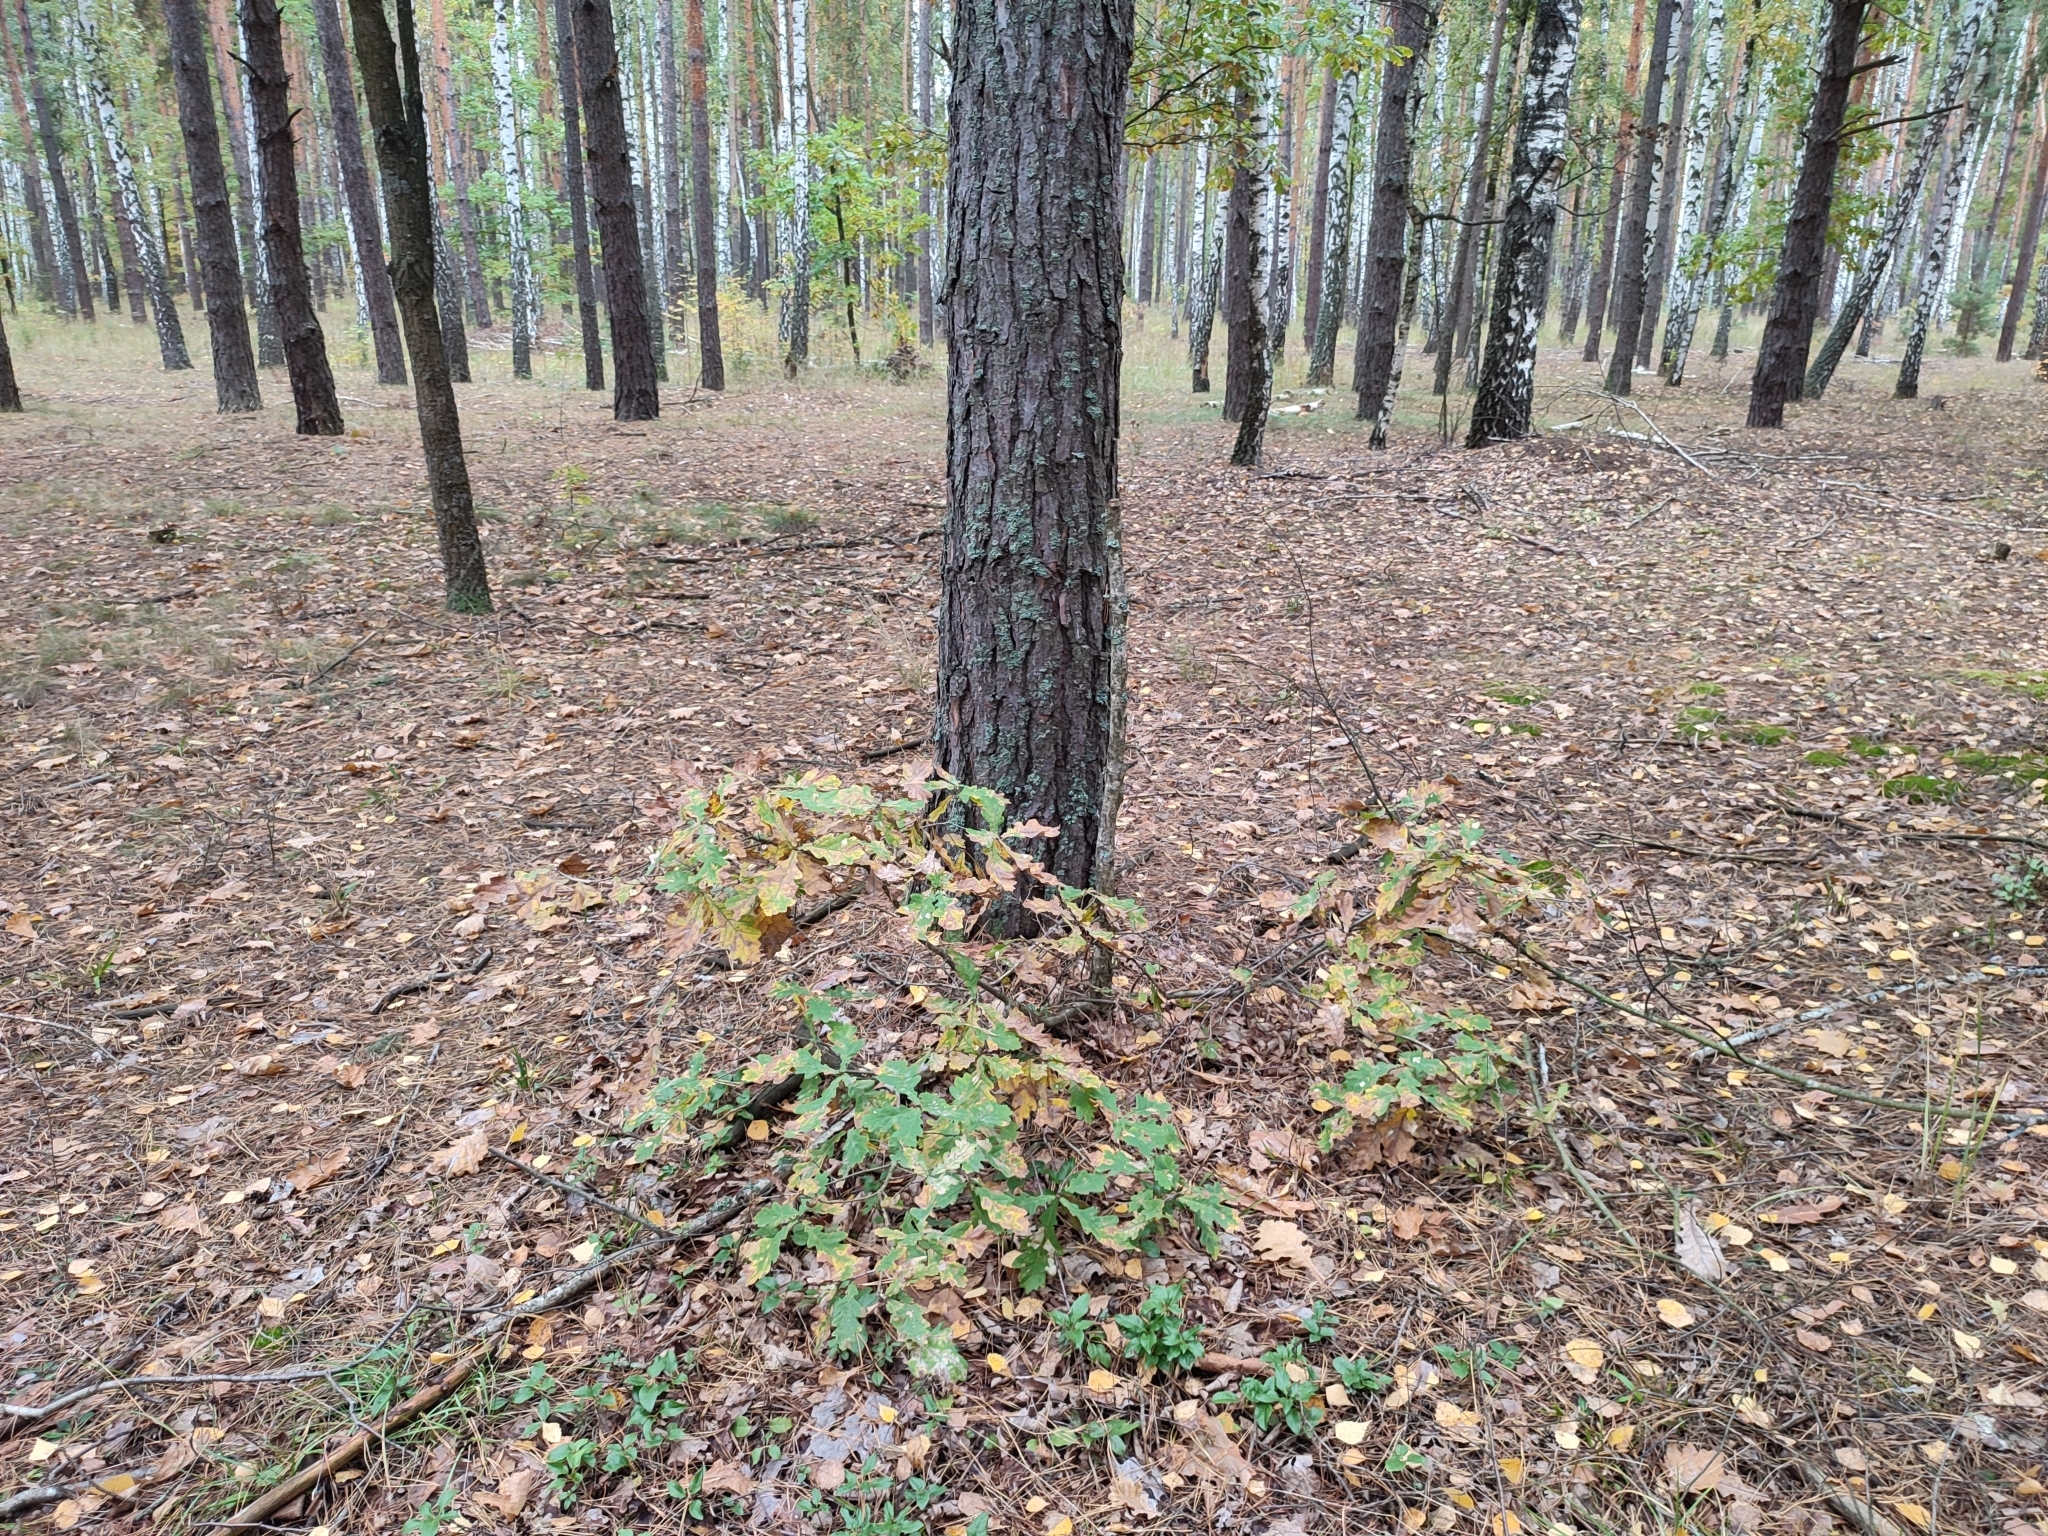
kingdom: Plantae
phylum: Tracheophyta
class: Magnoliopsida
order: Fagales
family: Fagaceae
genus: Quercus
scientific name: Quercus robur
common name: Pedunculate oak
